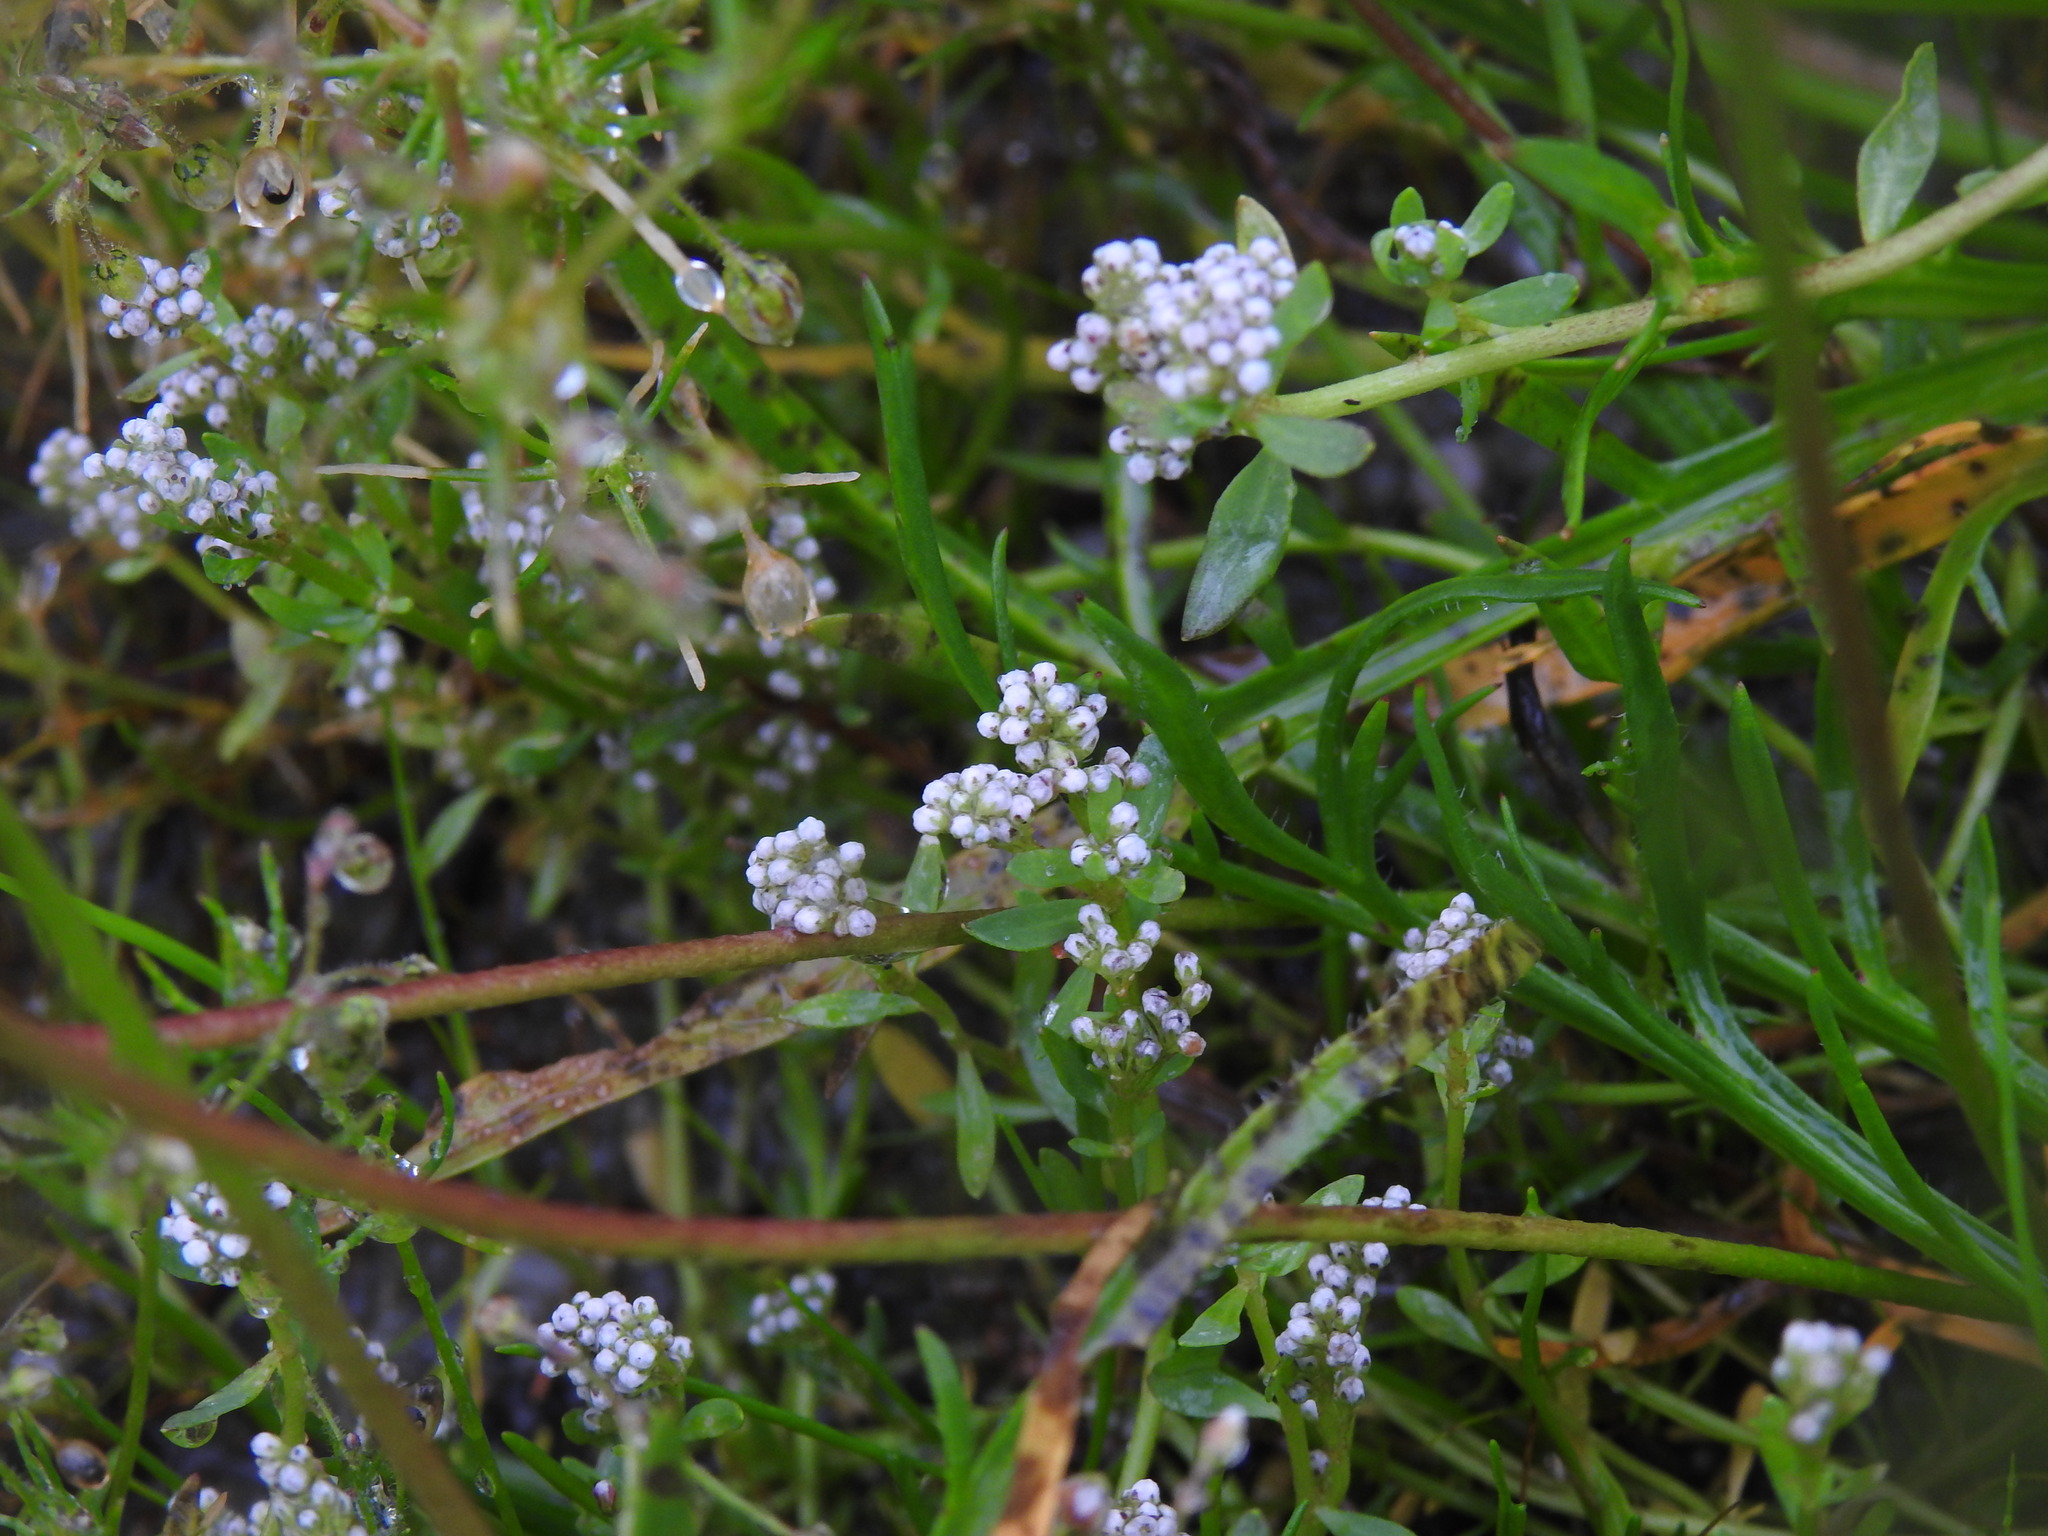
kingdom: Plantae
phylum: Tracheophyta
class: Magnoliopsida
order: Caryophyllales
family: Caryophyllaceae
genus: Corrigiola
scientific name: Corrigiola litoralis
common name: Strapwort
